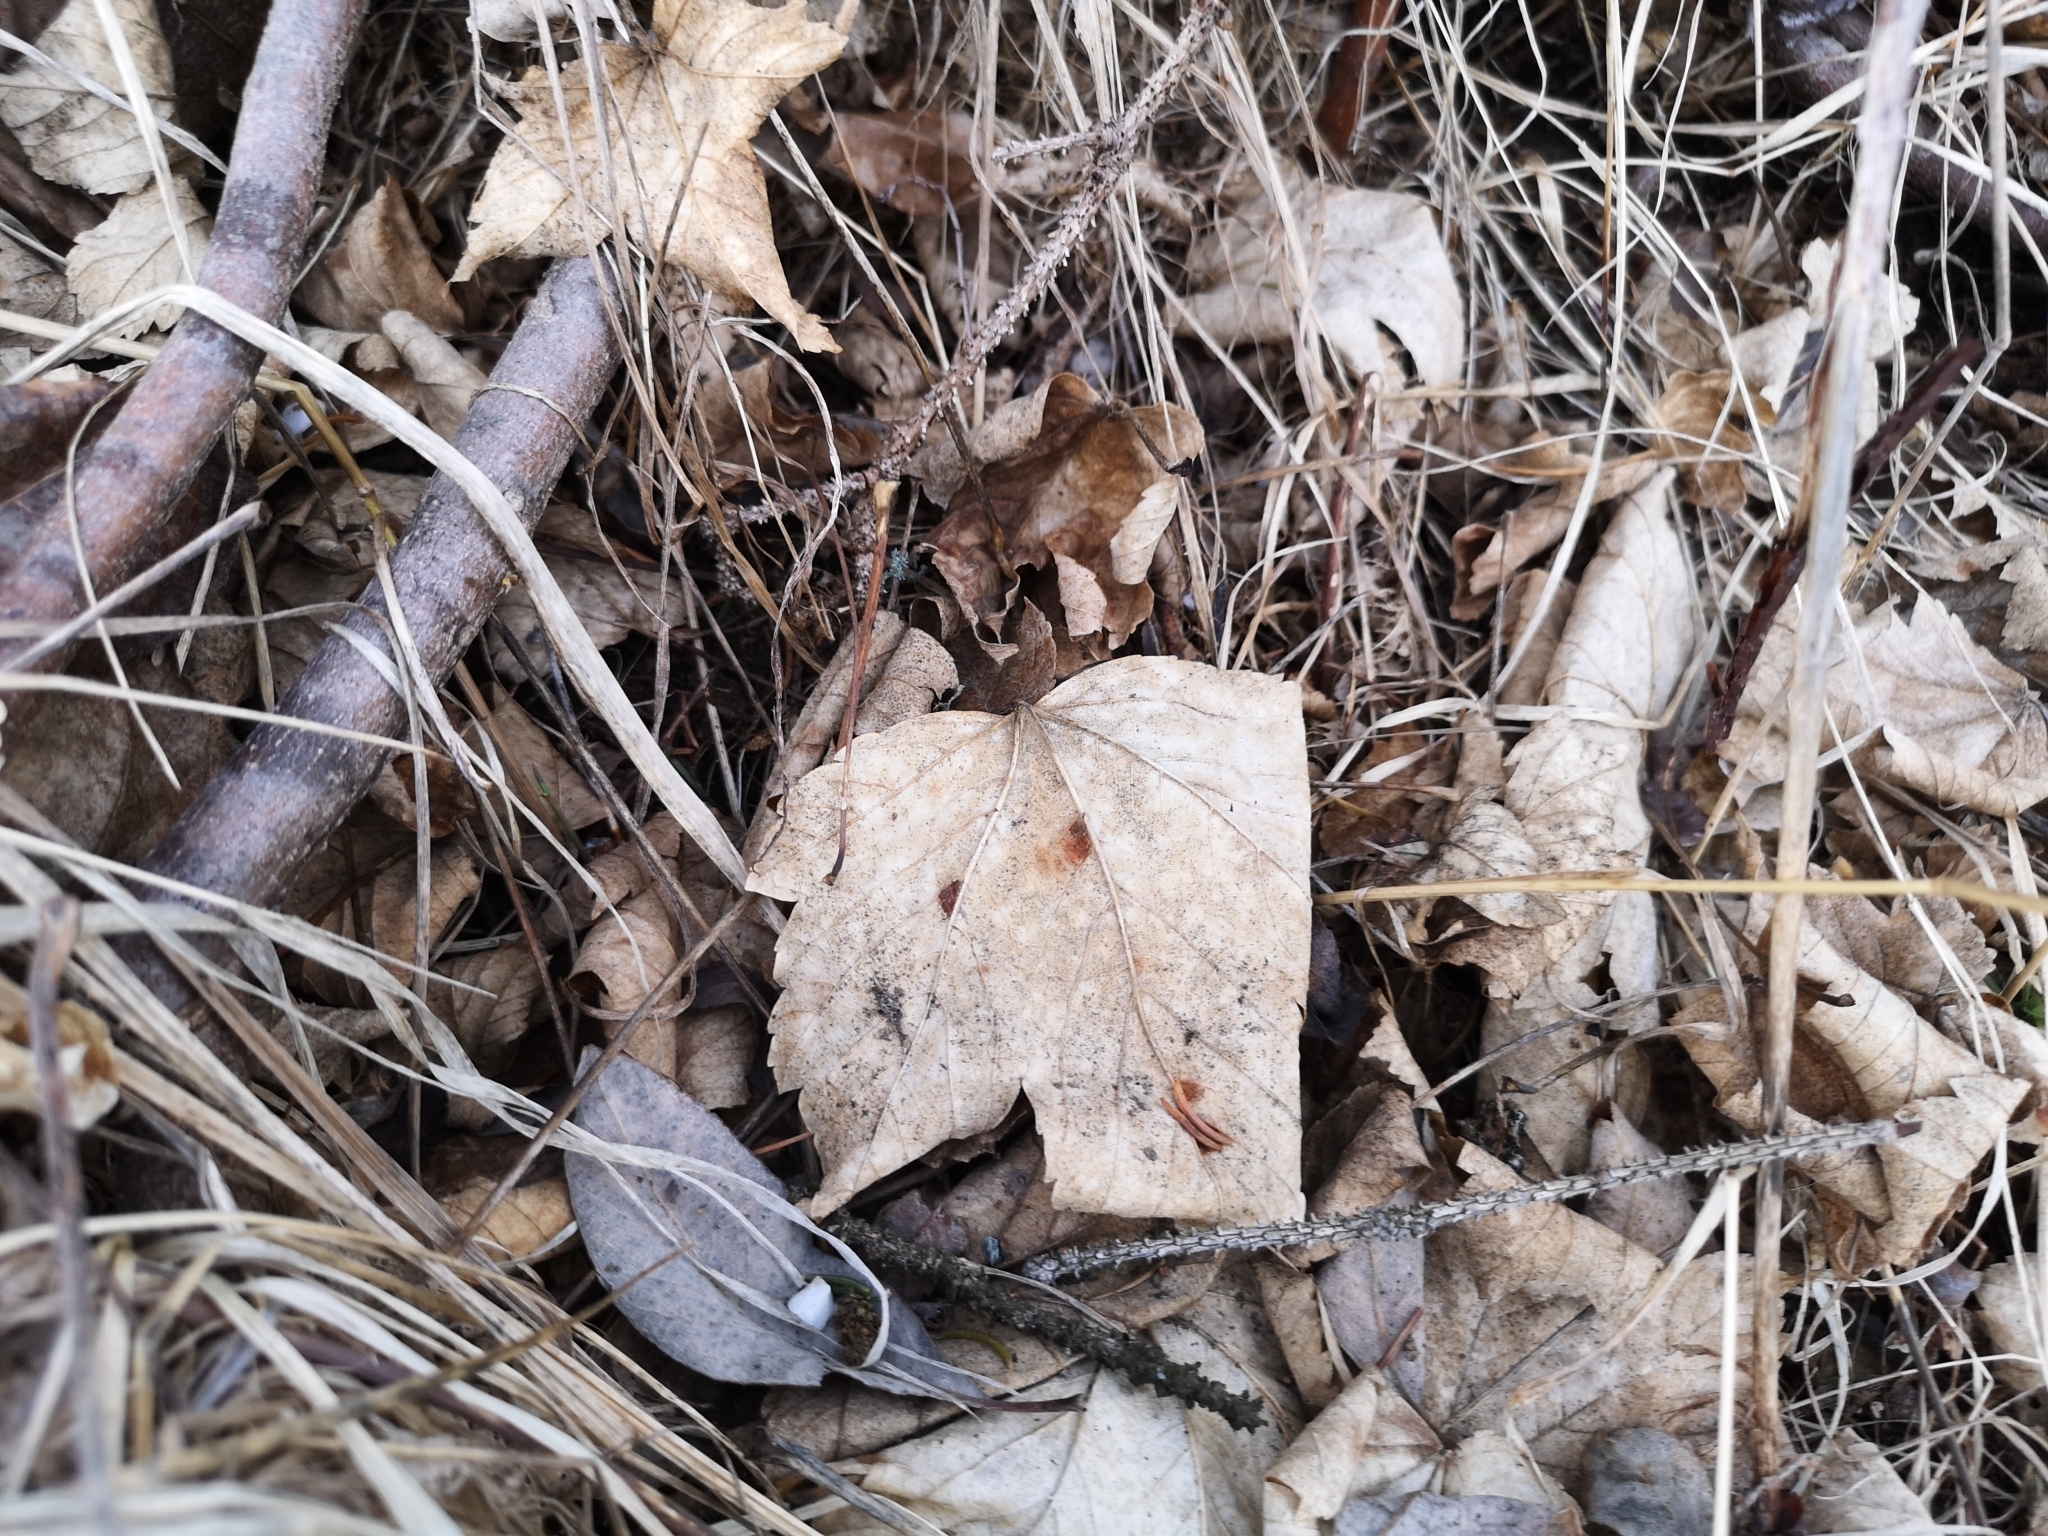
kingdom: Plantae
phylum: Tracheophyta
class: Magnoliopsida
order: Sapindales
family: Sapindaceae
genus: Acer
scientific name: Acer pseudoplatanus
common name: Sycamore
